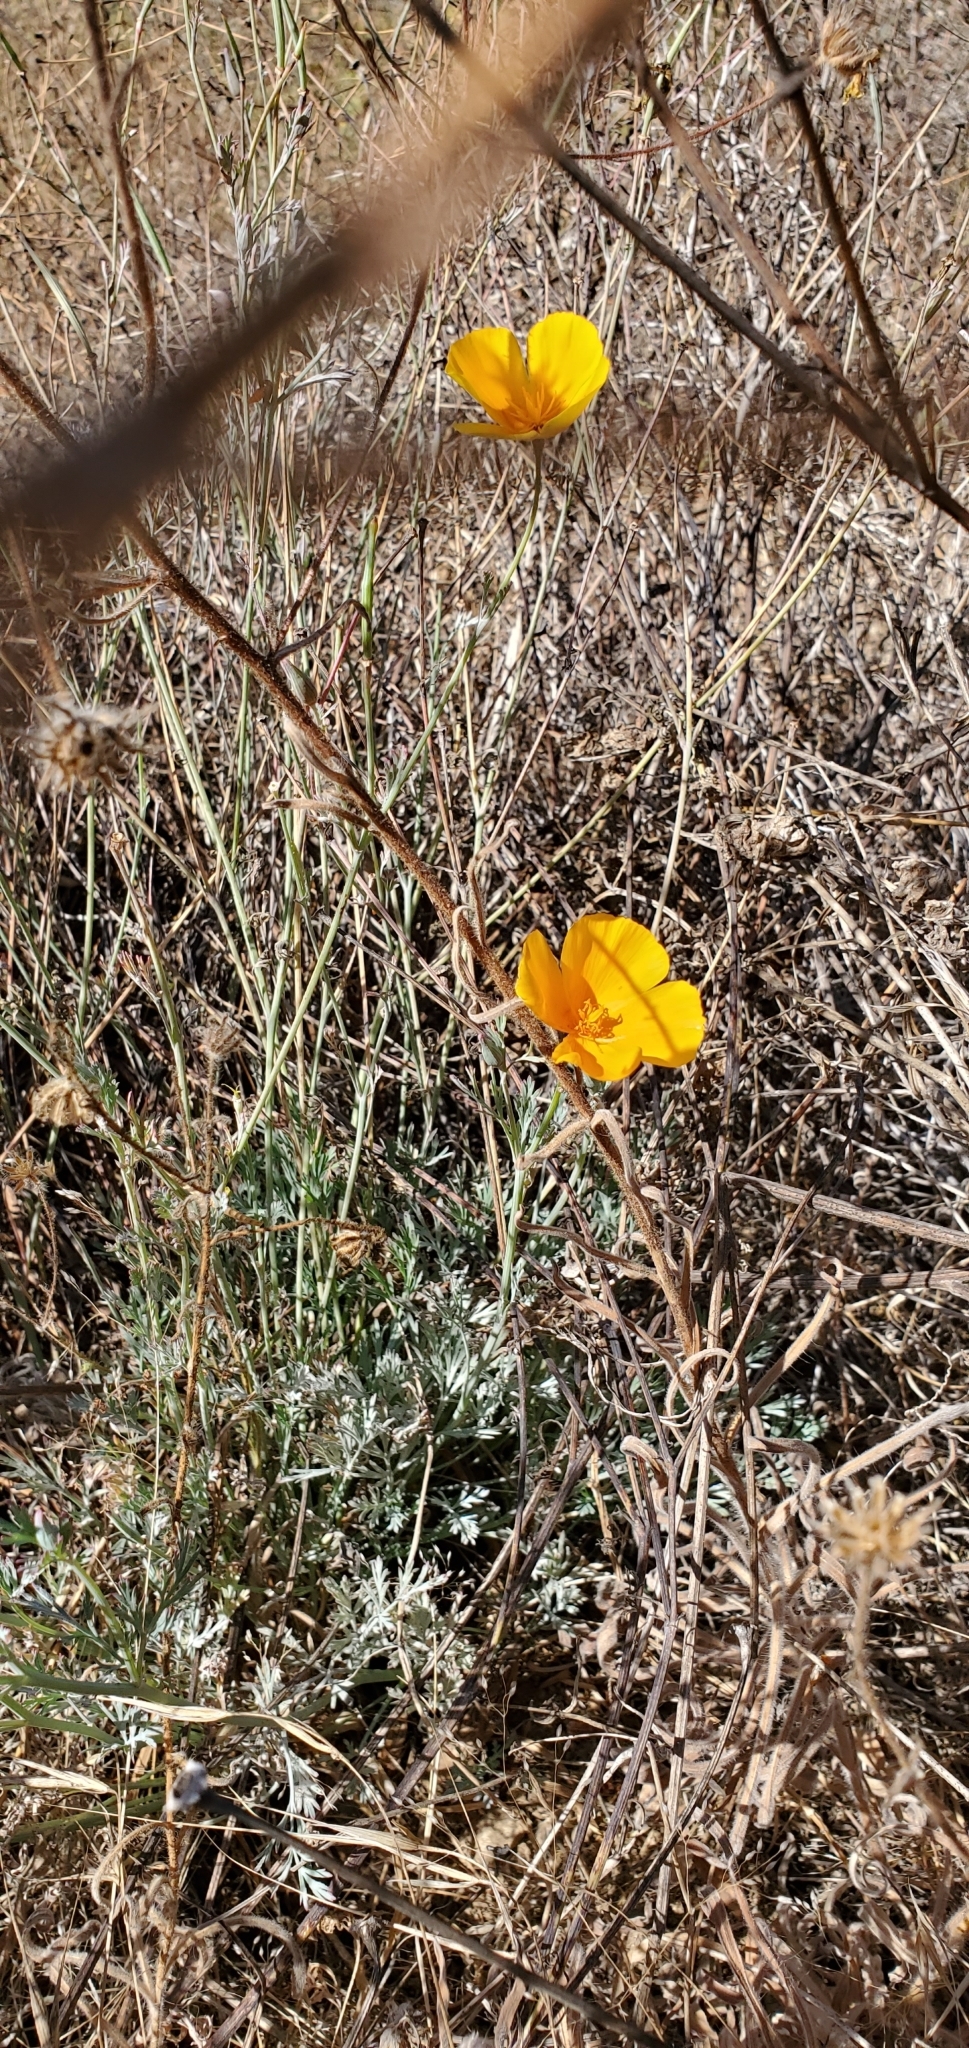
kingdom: Plantae
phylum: Tracheophyta
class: Magnoliopsida
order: Ranunculales
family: Papaveraceae
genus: Eschscholzia
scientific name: Eschscholzia californica
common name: California poppy
